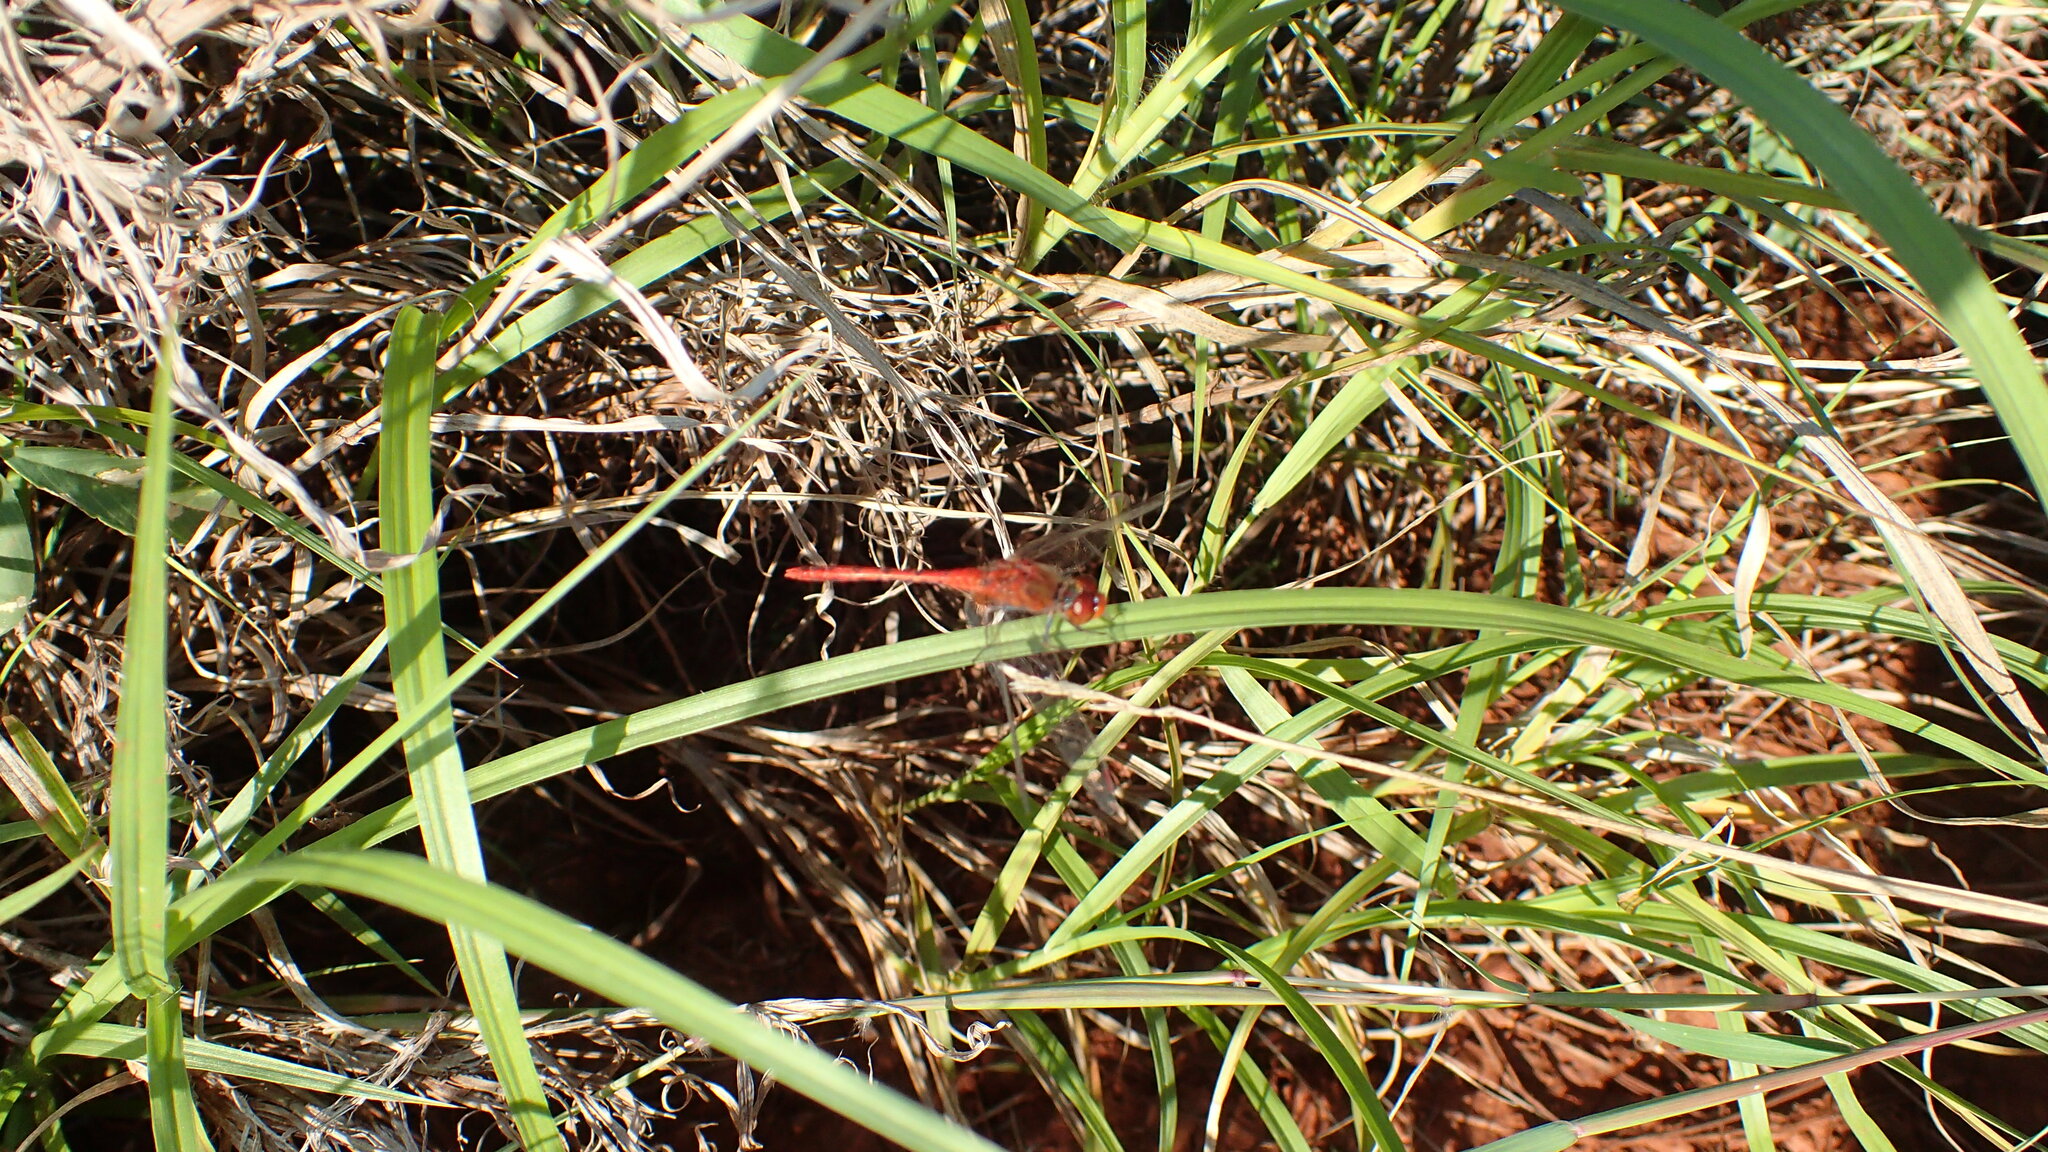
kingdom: Animalia
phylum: Arthropoda
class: Insecta
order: Odonata
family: Libellulidae
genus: Diplacodes
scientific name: Diplacodes bipunctata
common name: Red percher dragonfly
